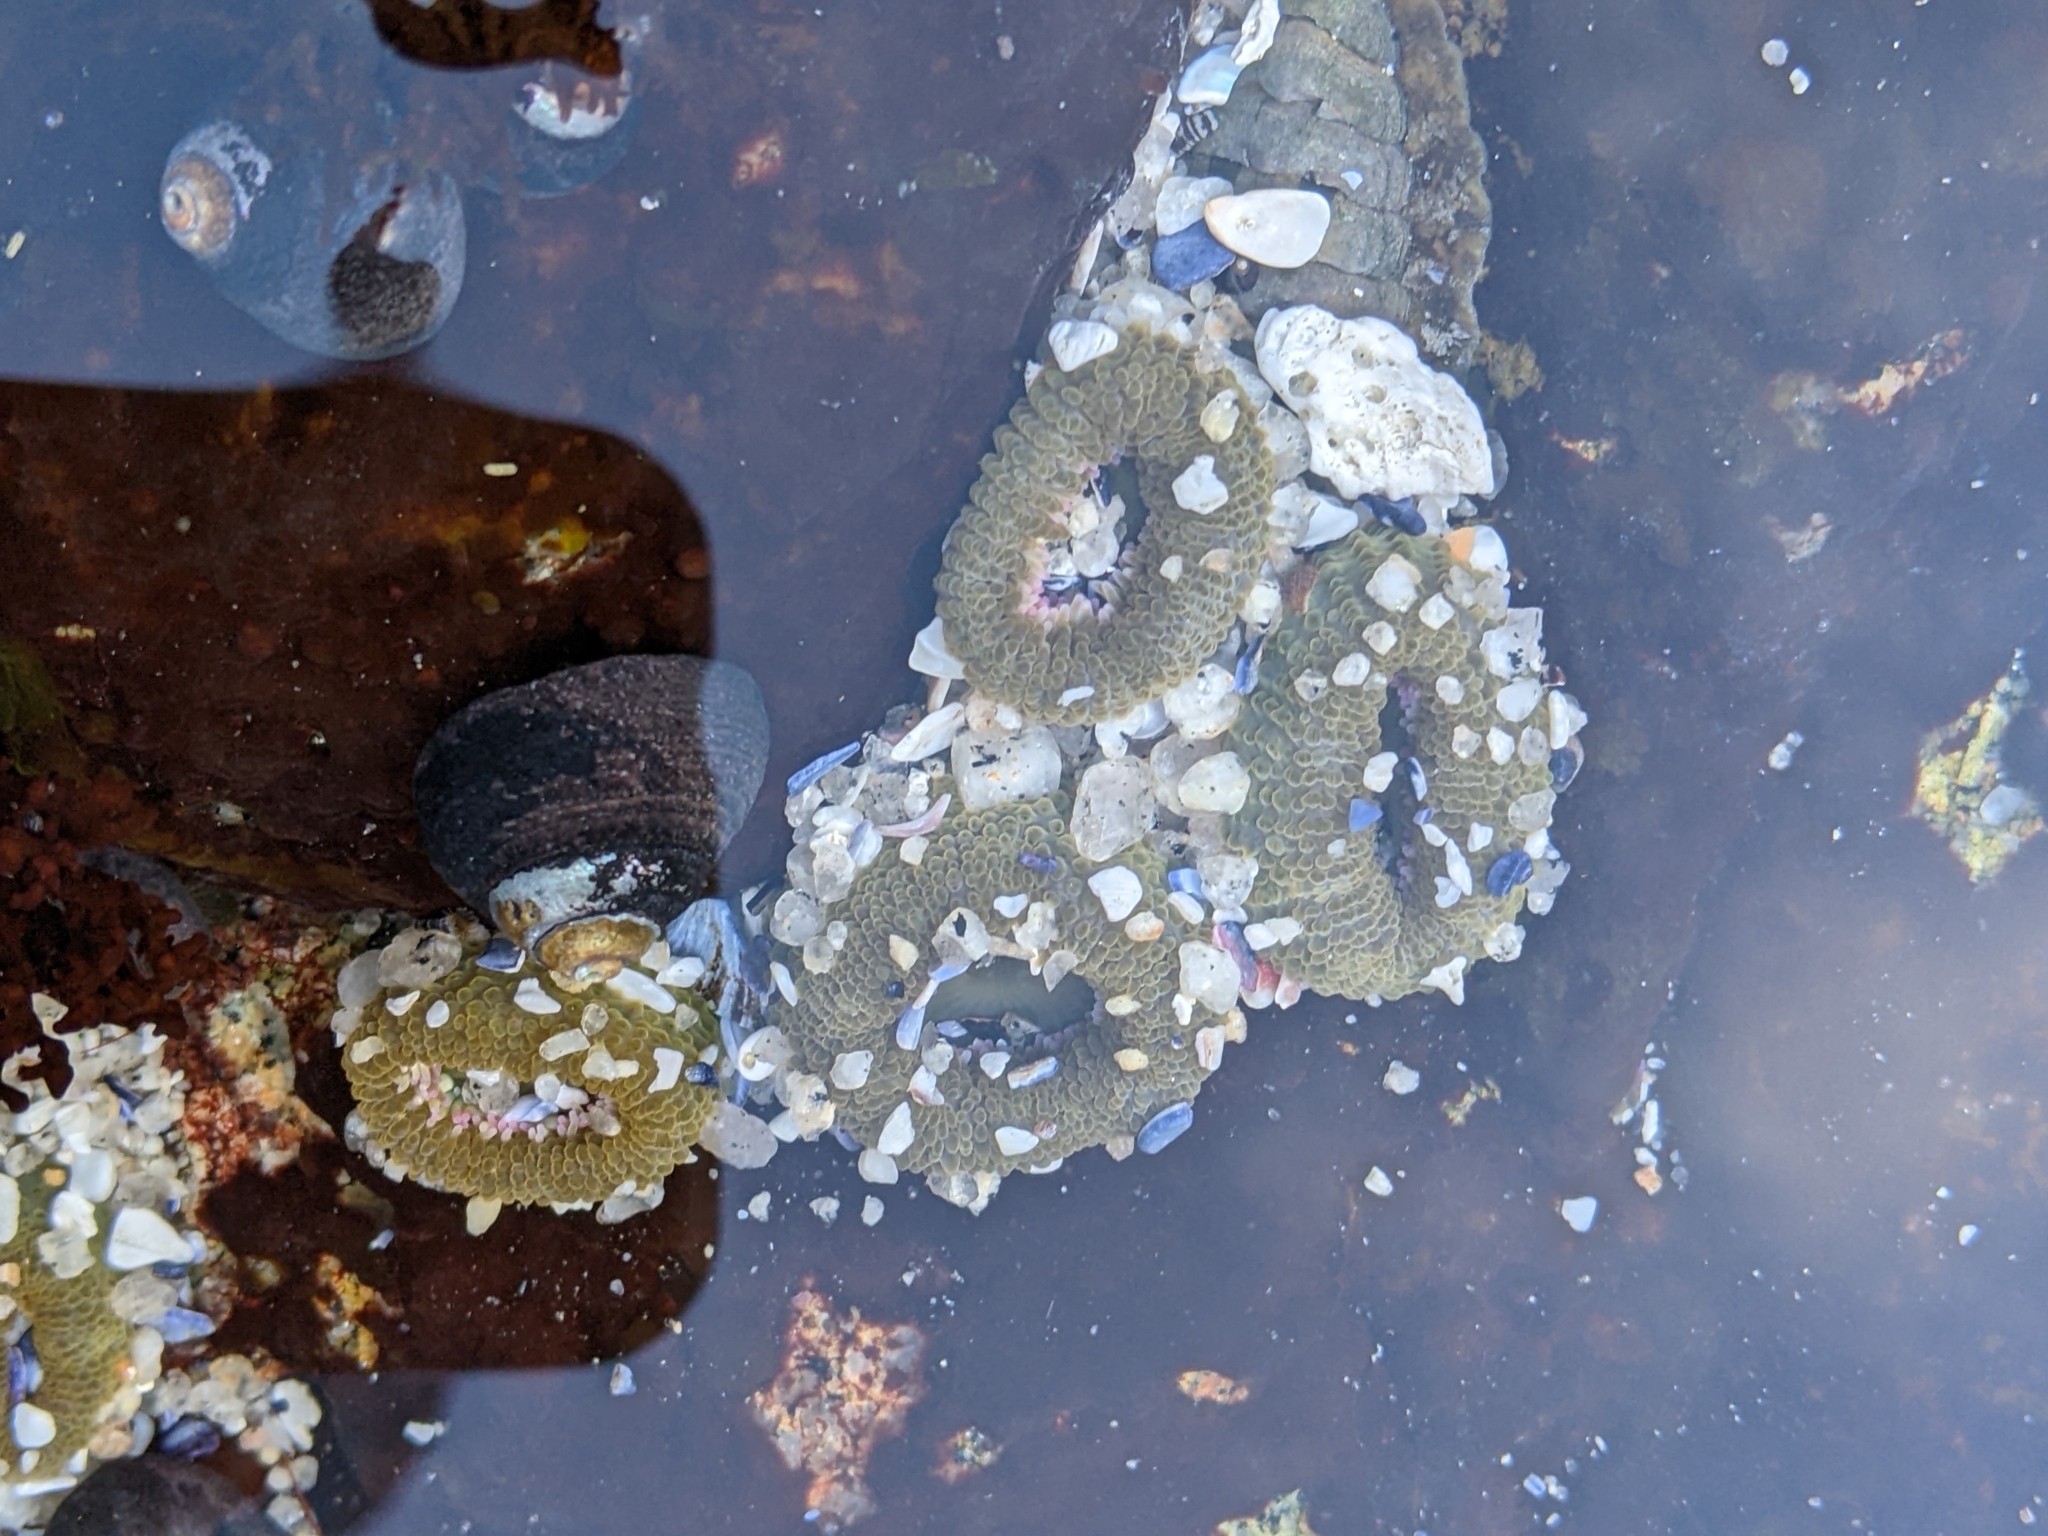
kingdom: Animalia
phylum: Cnidaria
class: Anthozoa
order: Actiniaria
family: Actiniidae
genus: Anthopleura
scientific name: Anthopleura elegantissima
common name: Clonal anemone
